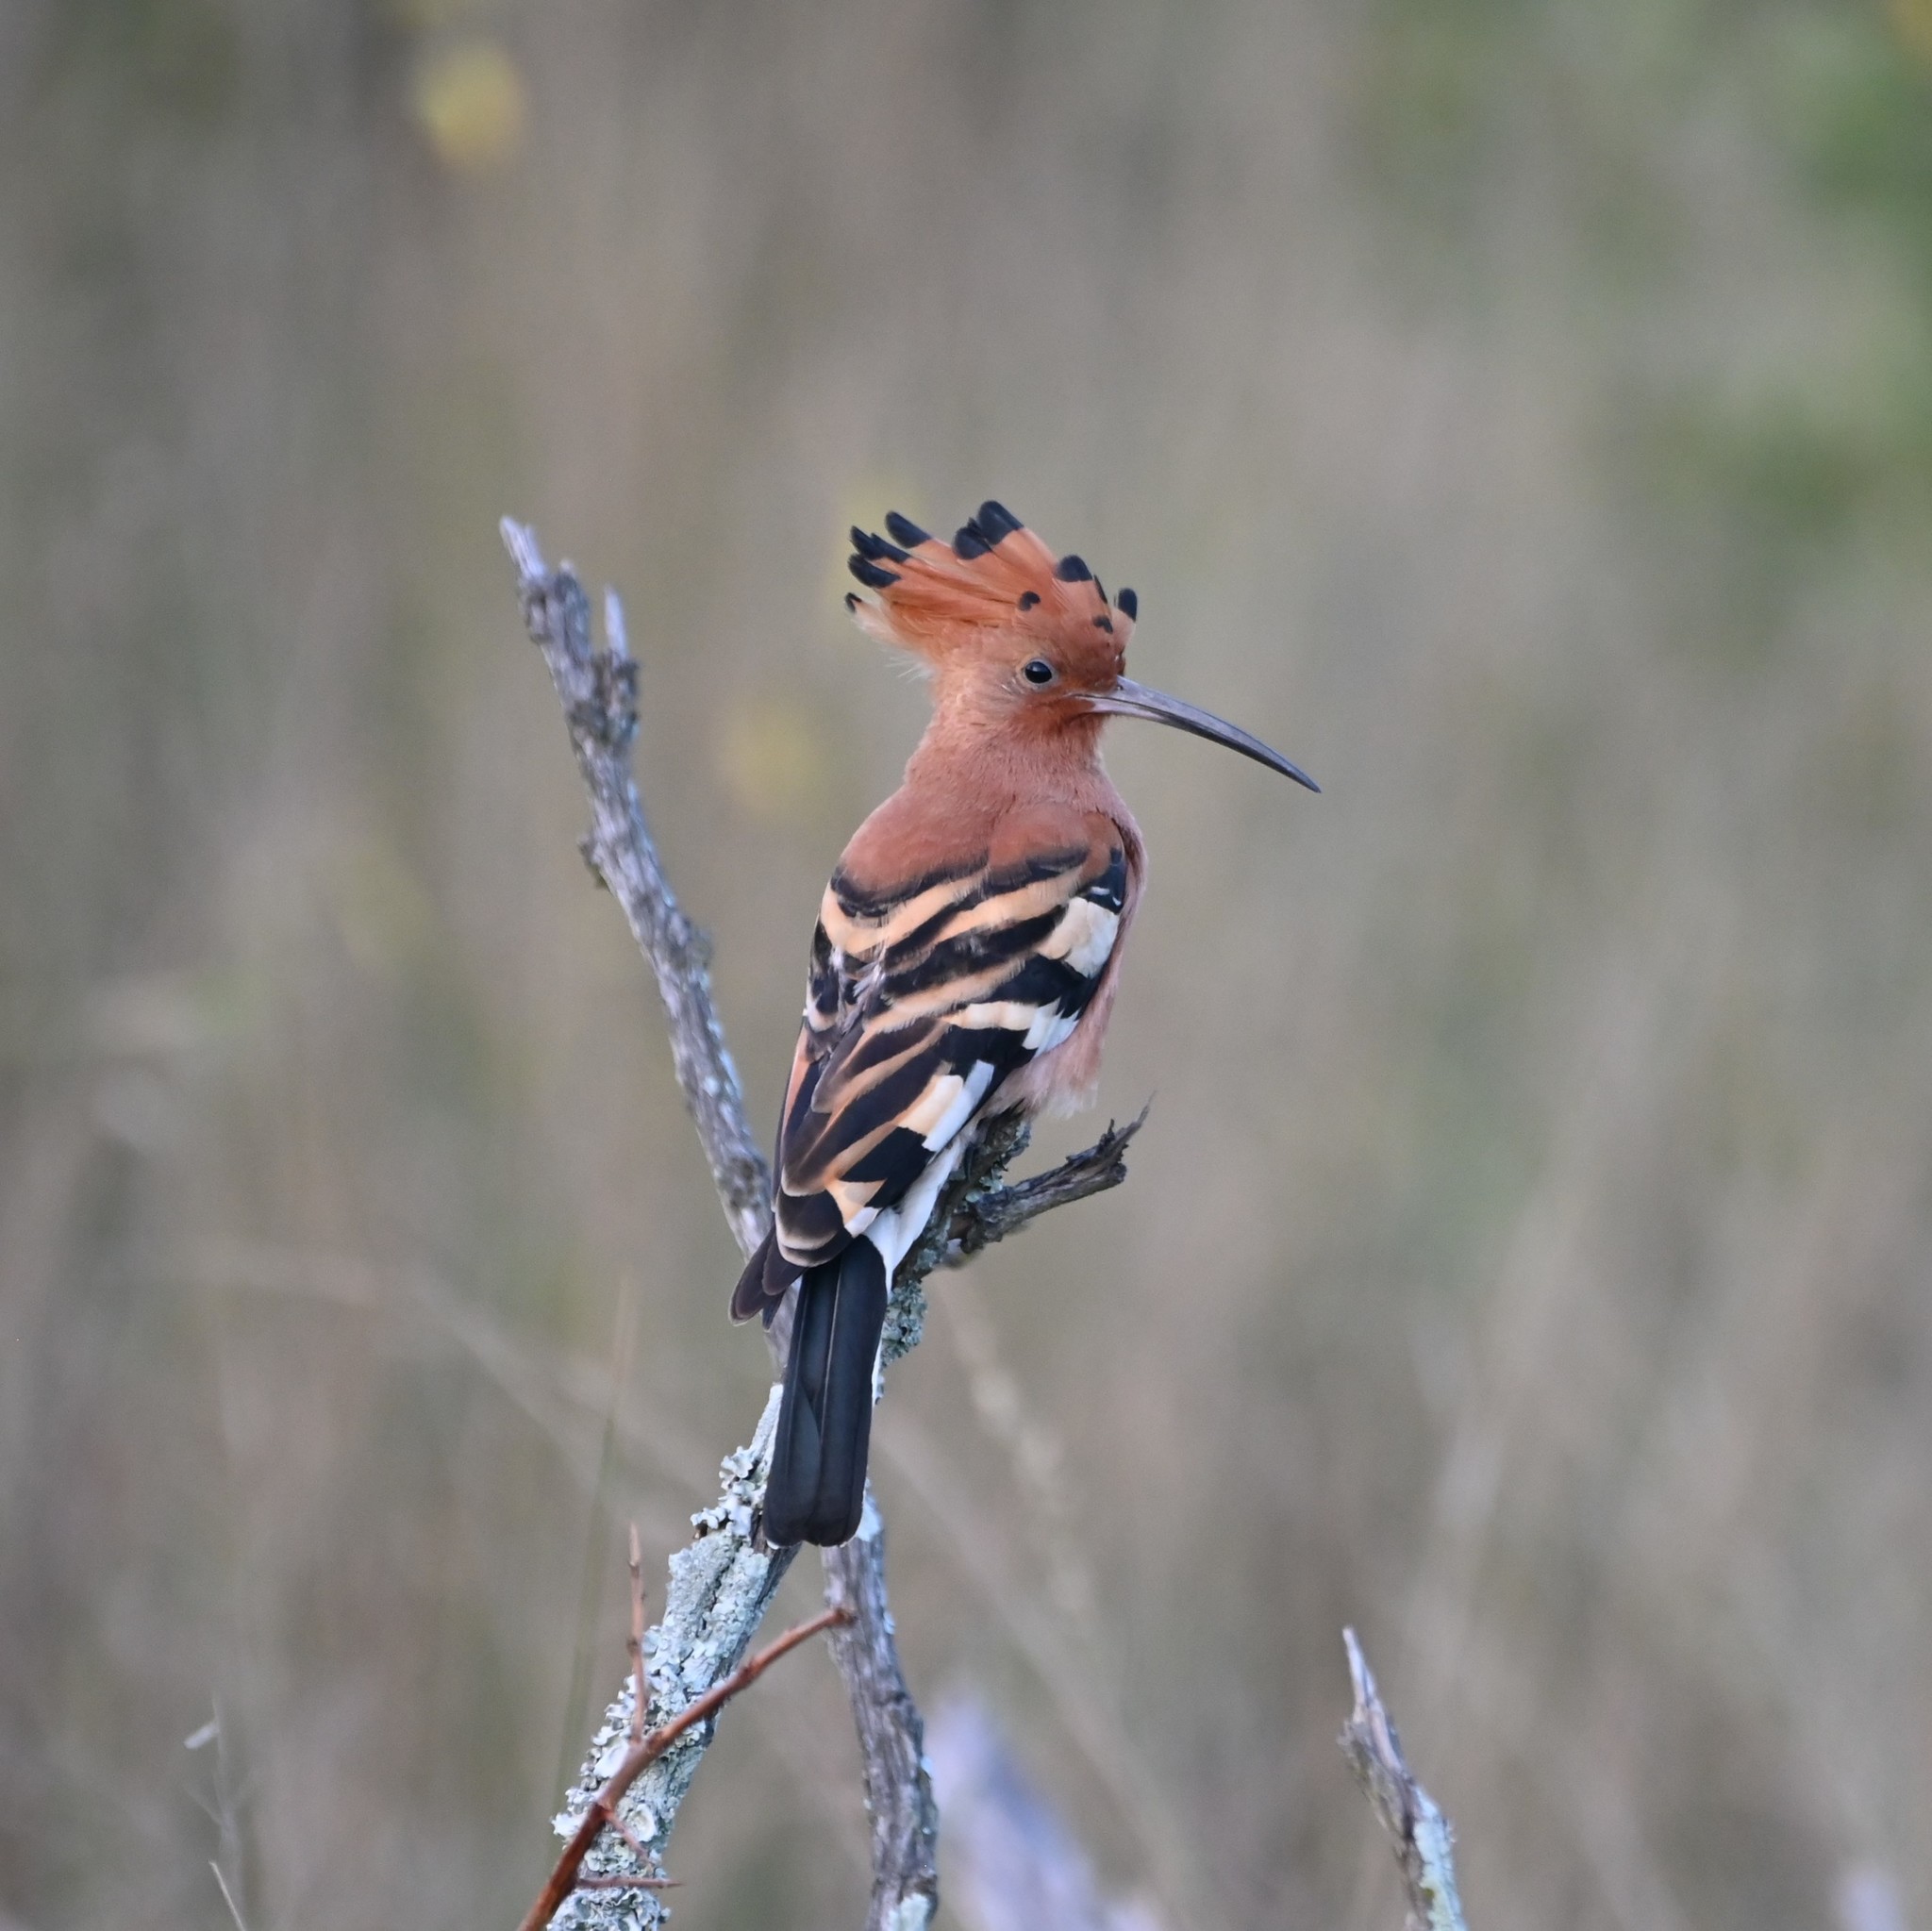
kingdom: Animalia
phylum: Chordata
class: Aves
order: Bucerotiformes
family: Upupidae
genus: Upupa
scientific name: Upupa africana
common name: African hoopoe
